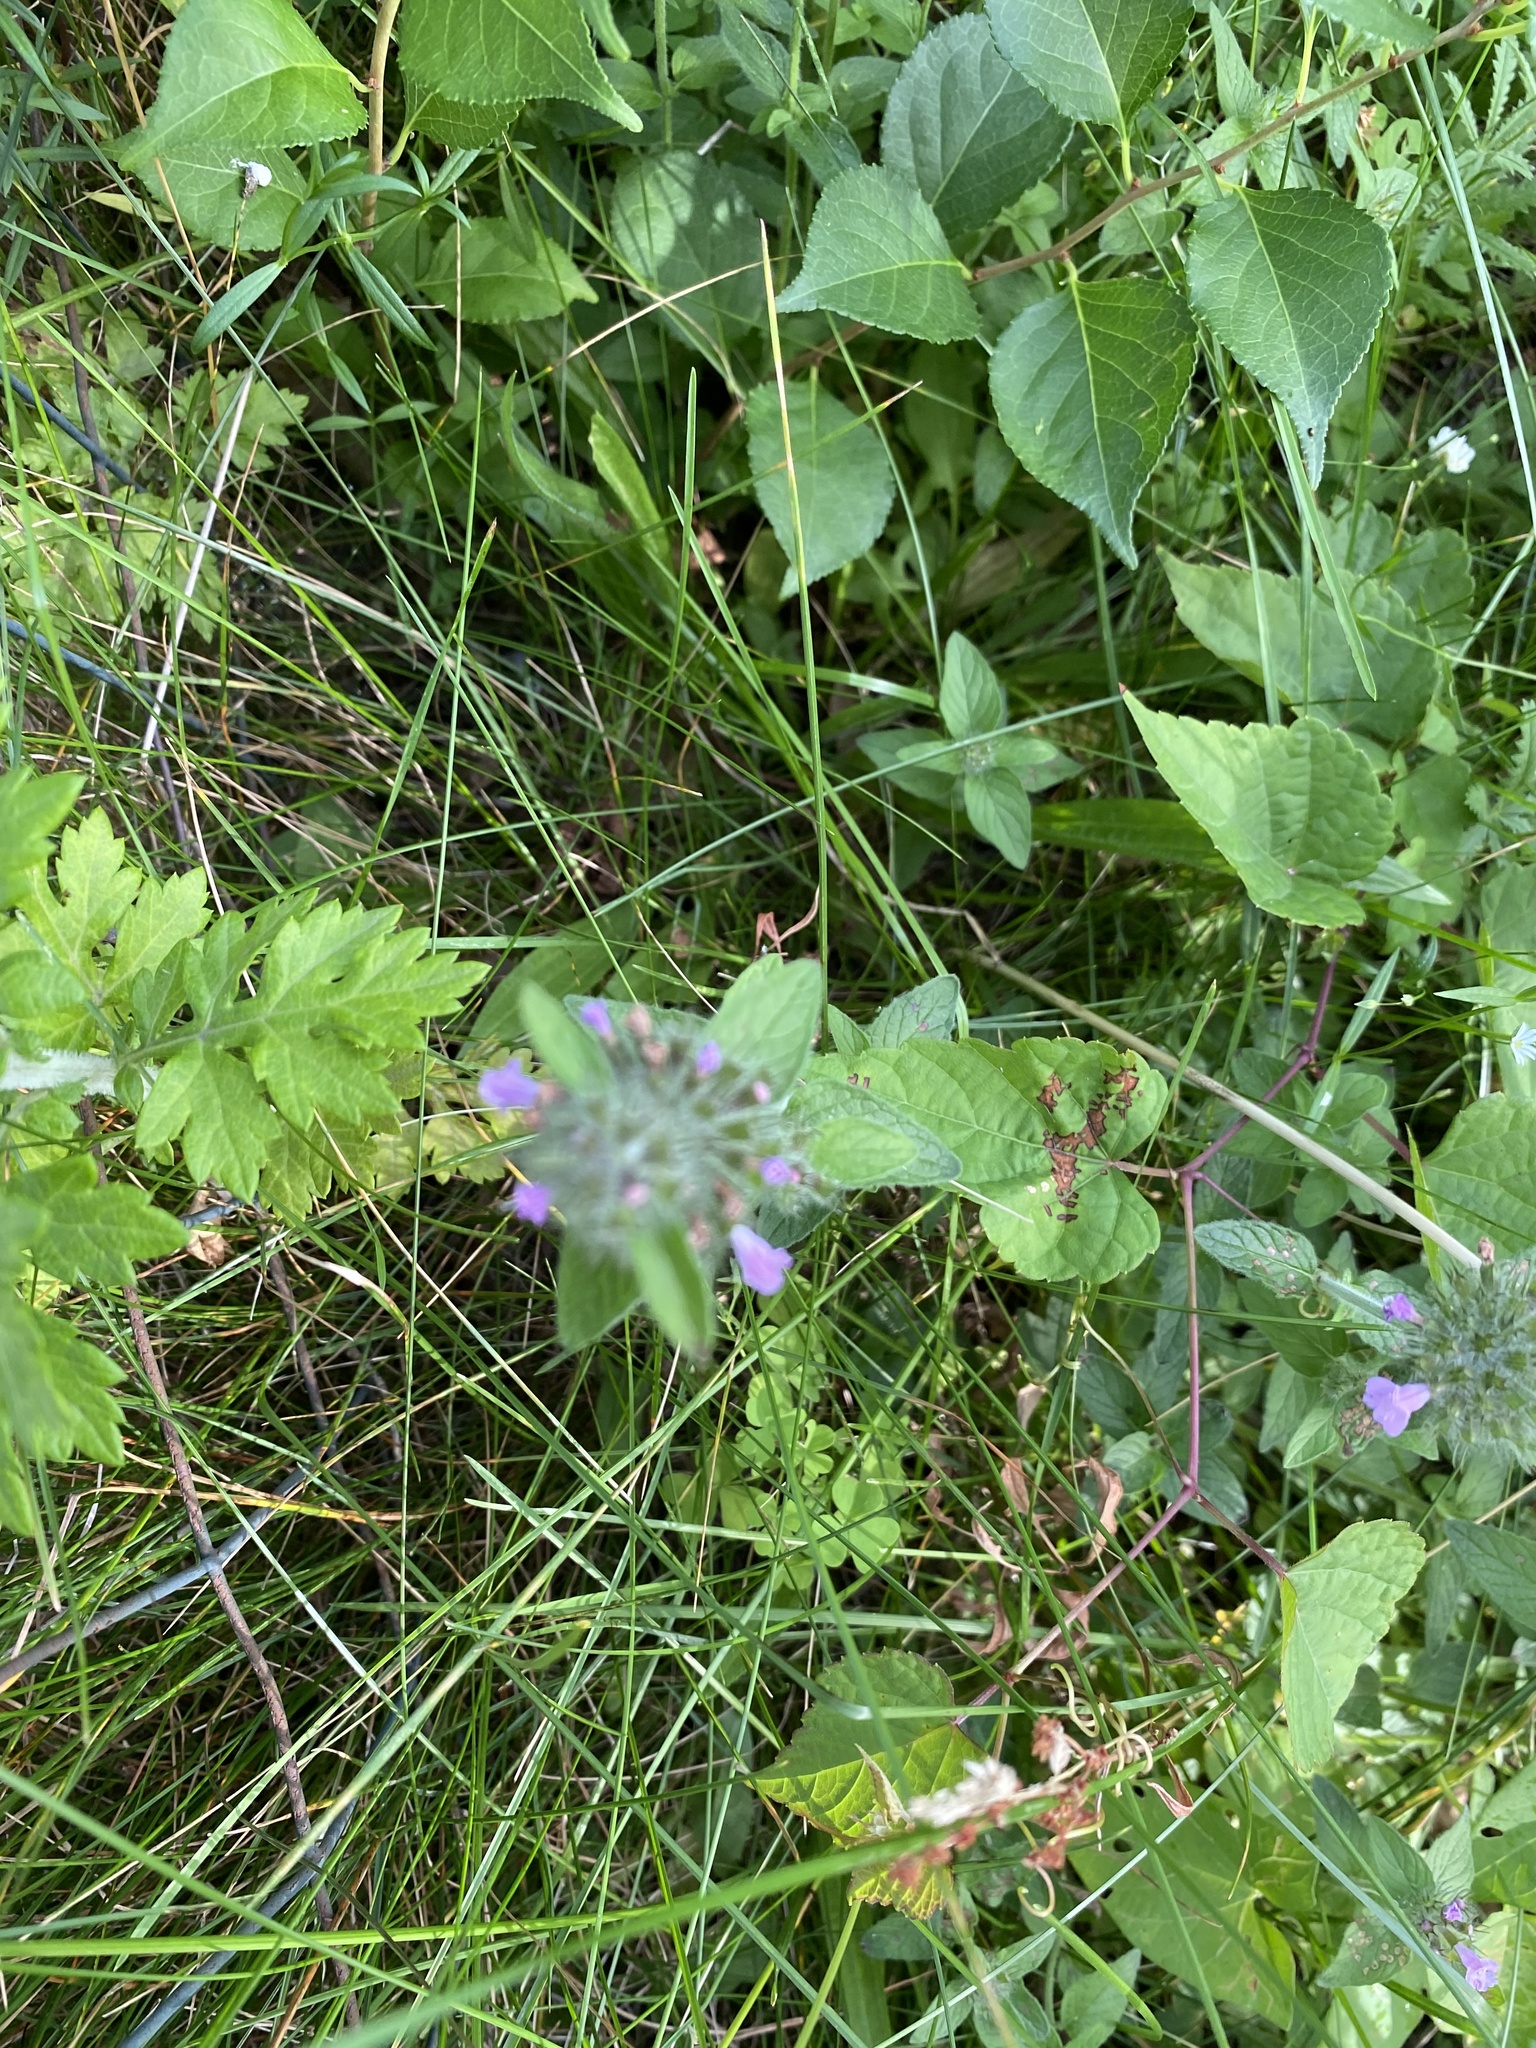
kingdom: Plantae
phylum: Tracheophyta
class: Magnoliopsida
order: Lamiales
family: Lamiaceae
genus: Clinopodium
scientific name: Clinopodium vulgare
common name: Wild basil
